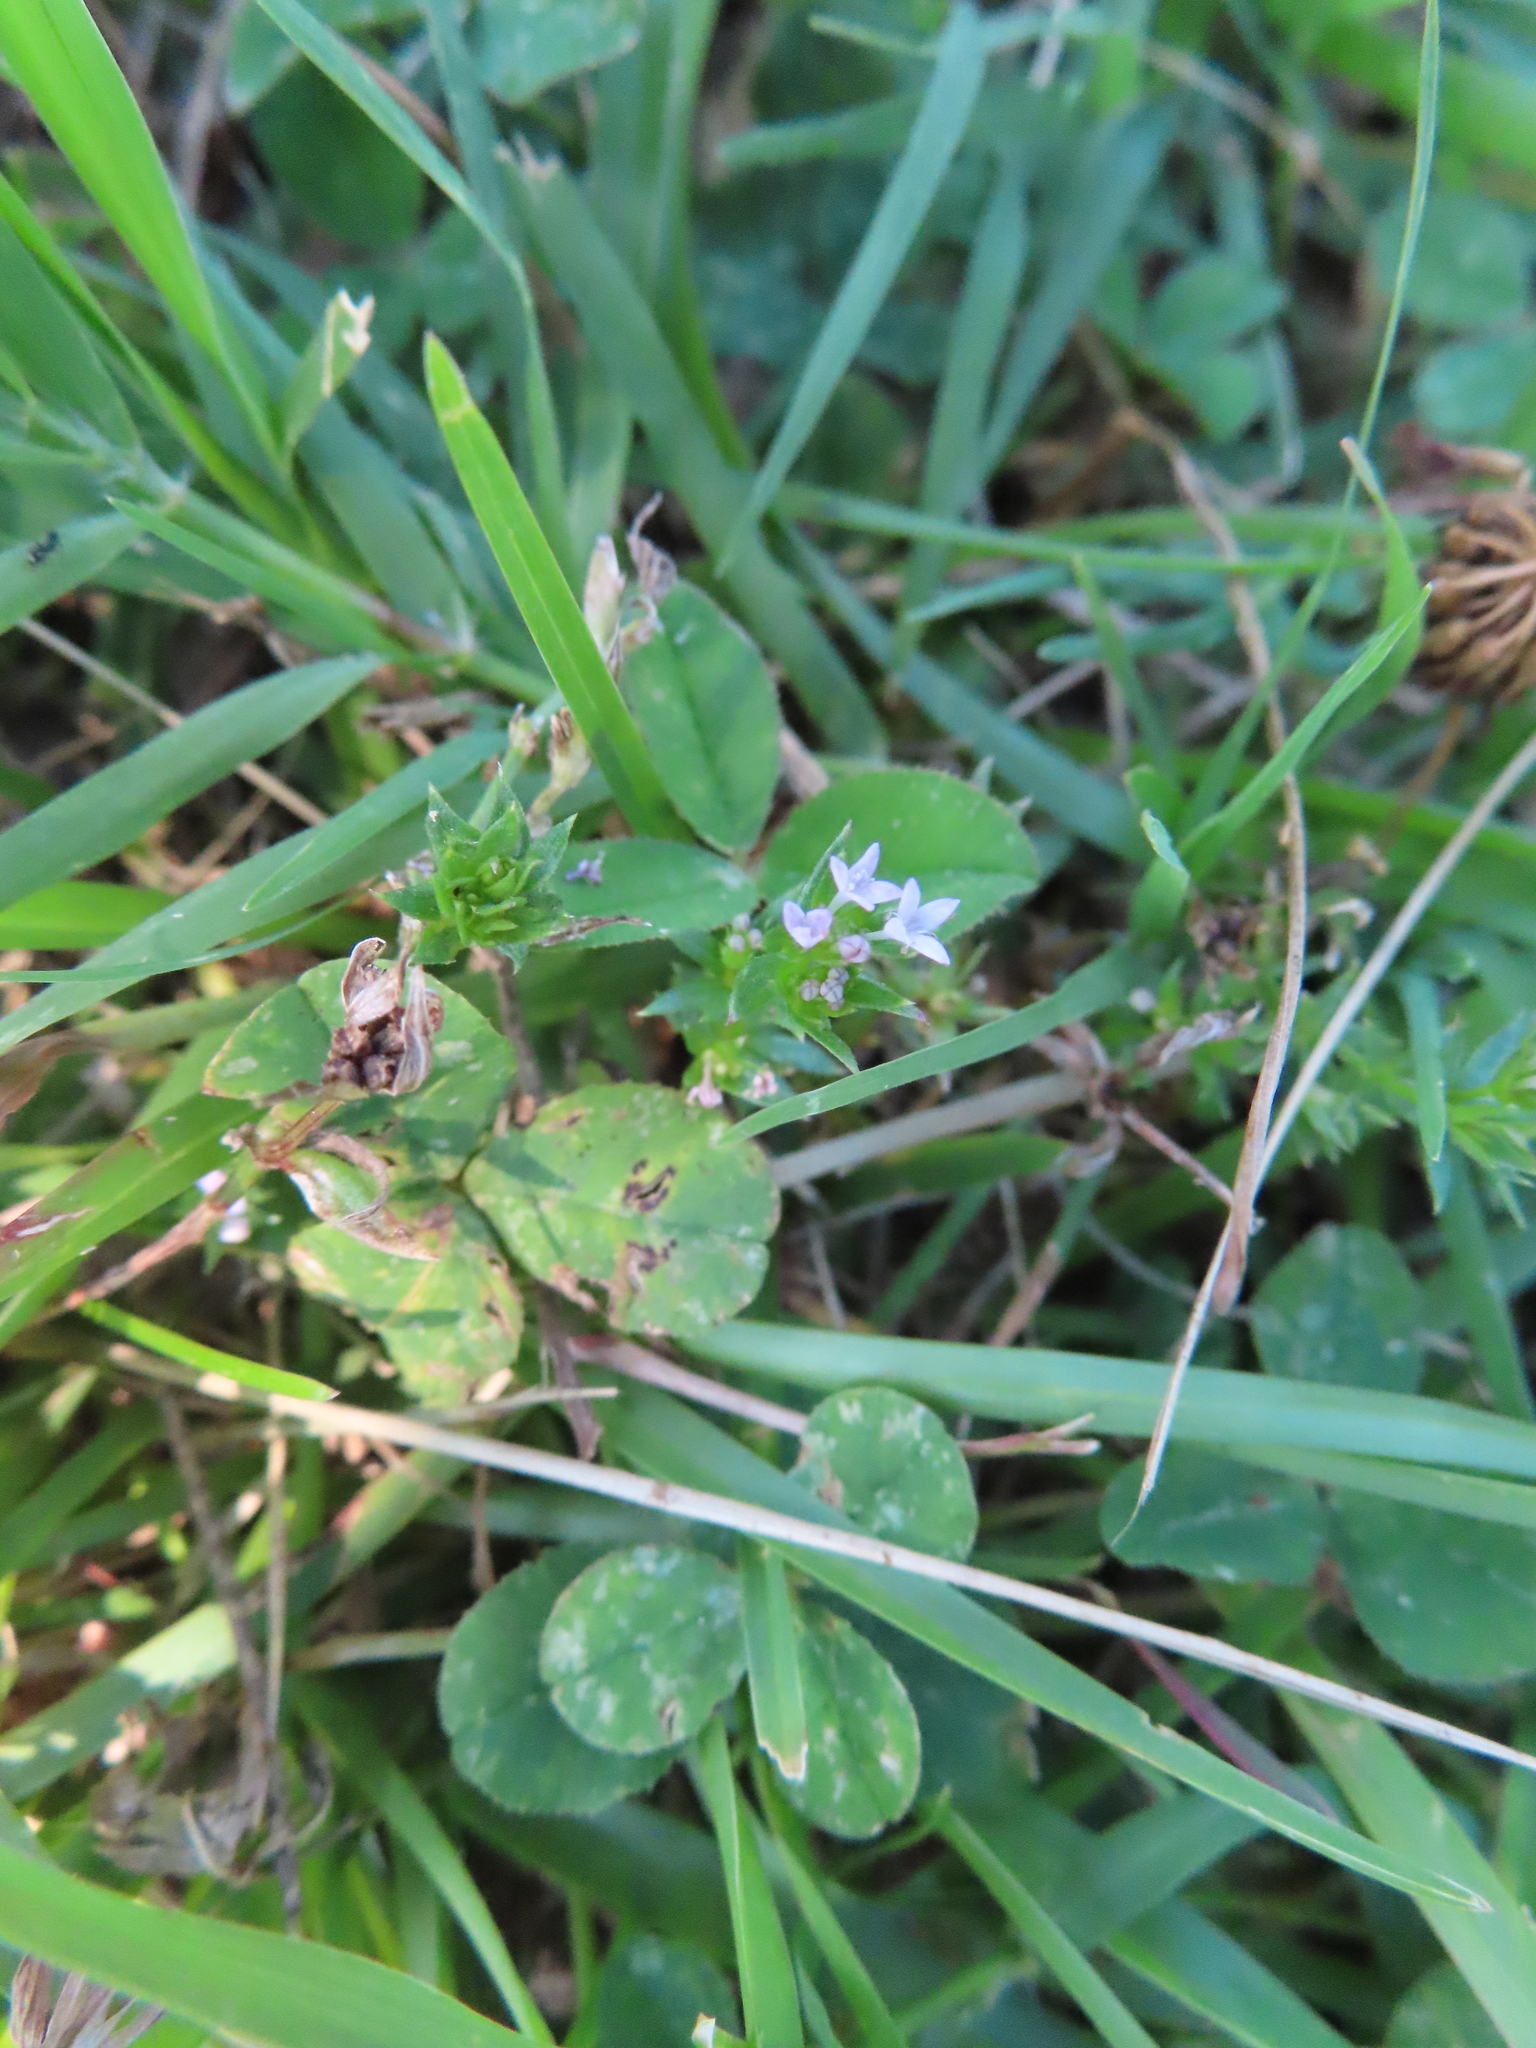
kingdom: Plantae
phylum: Tracheophyta
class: Magnoliopsida
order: Gentianales
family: Rubiaceae
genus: Sherardia
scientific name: Sherardia arvensis
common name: Field madder
